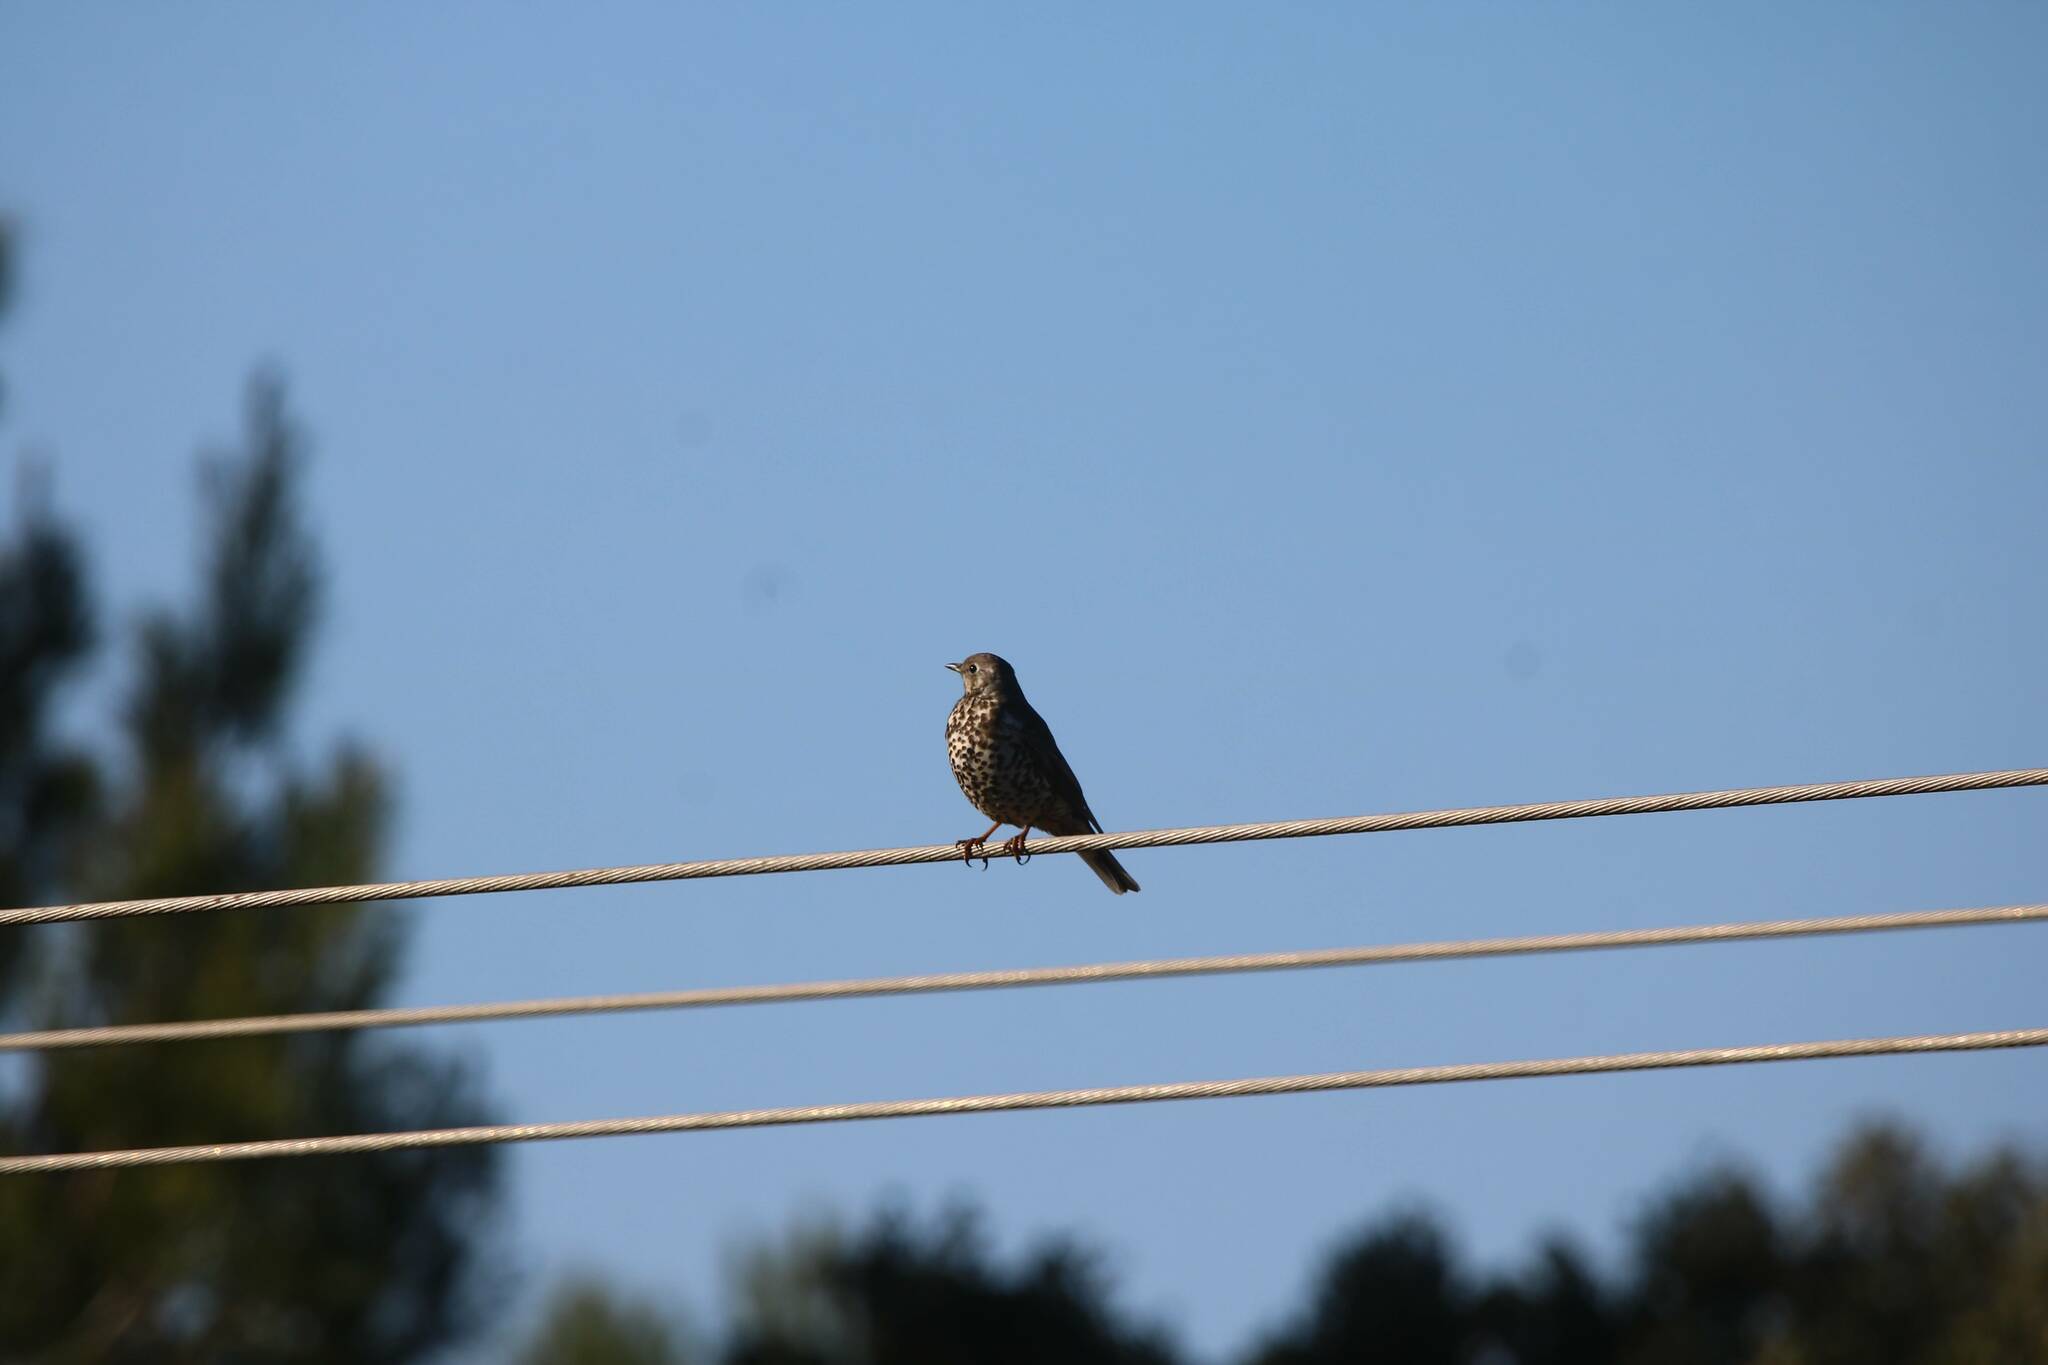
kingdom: Animalia
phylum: Chordata
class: Aves
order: Passeriformes
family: Turdidae
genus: Turdus
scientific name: Turdus viscivorus
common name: Mistle thrush
